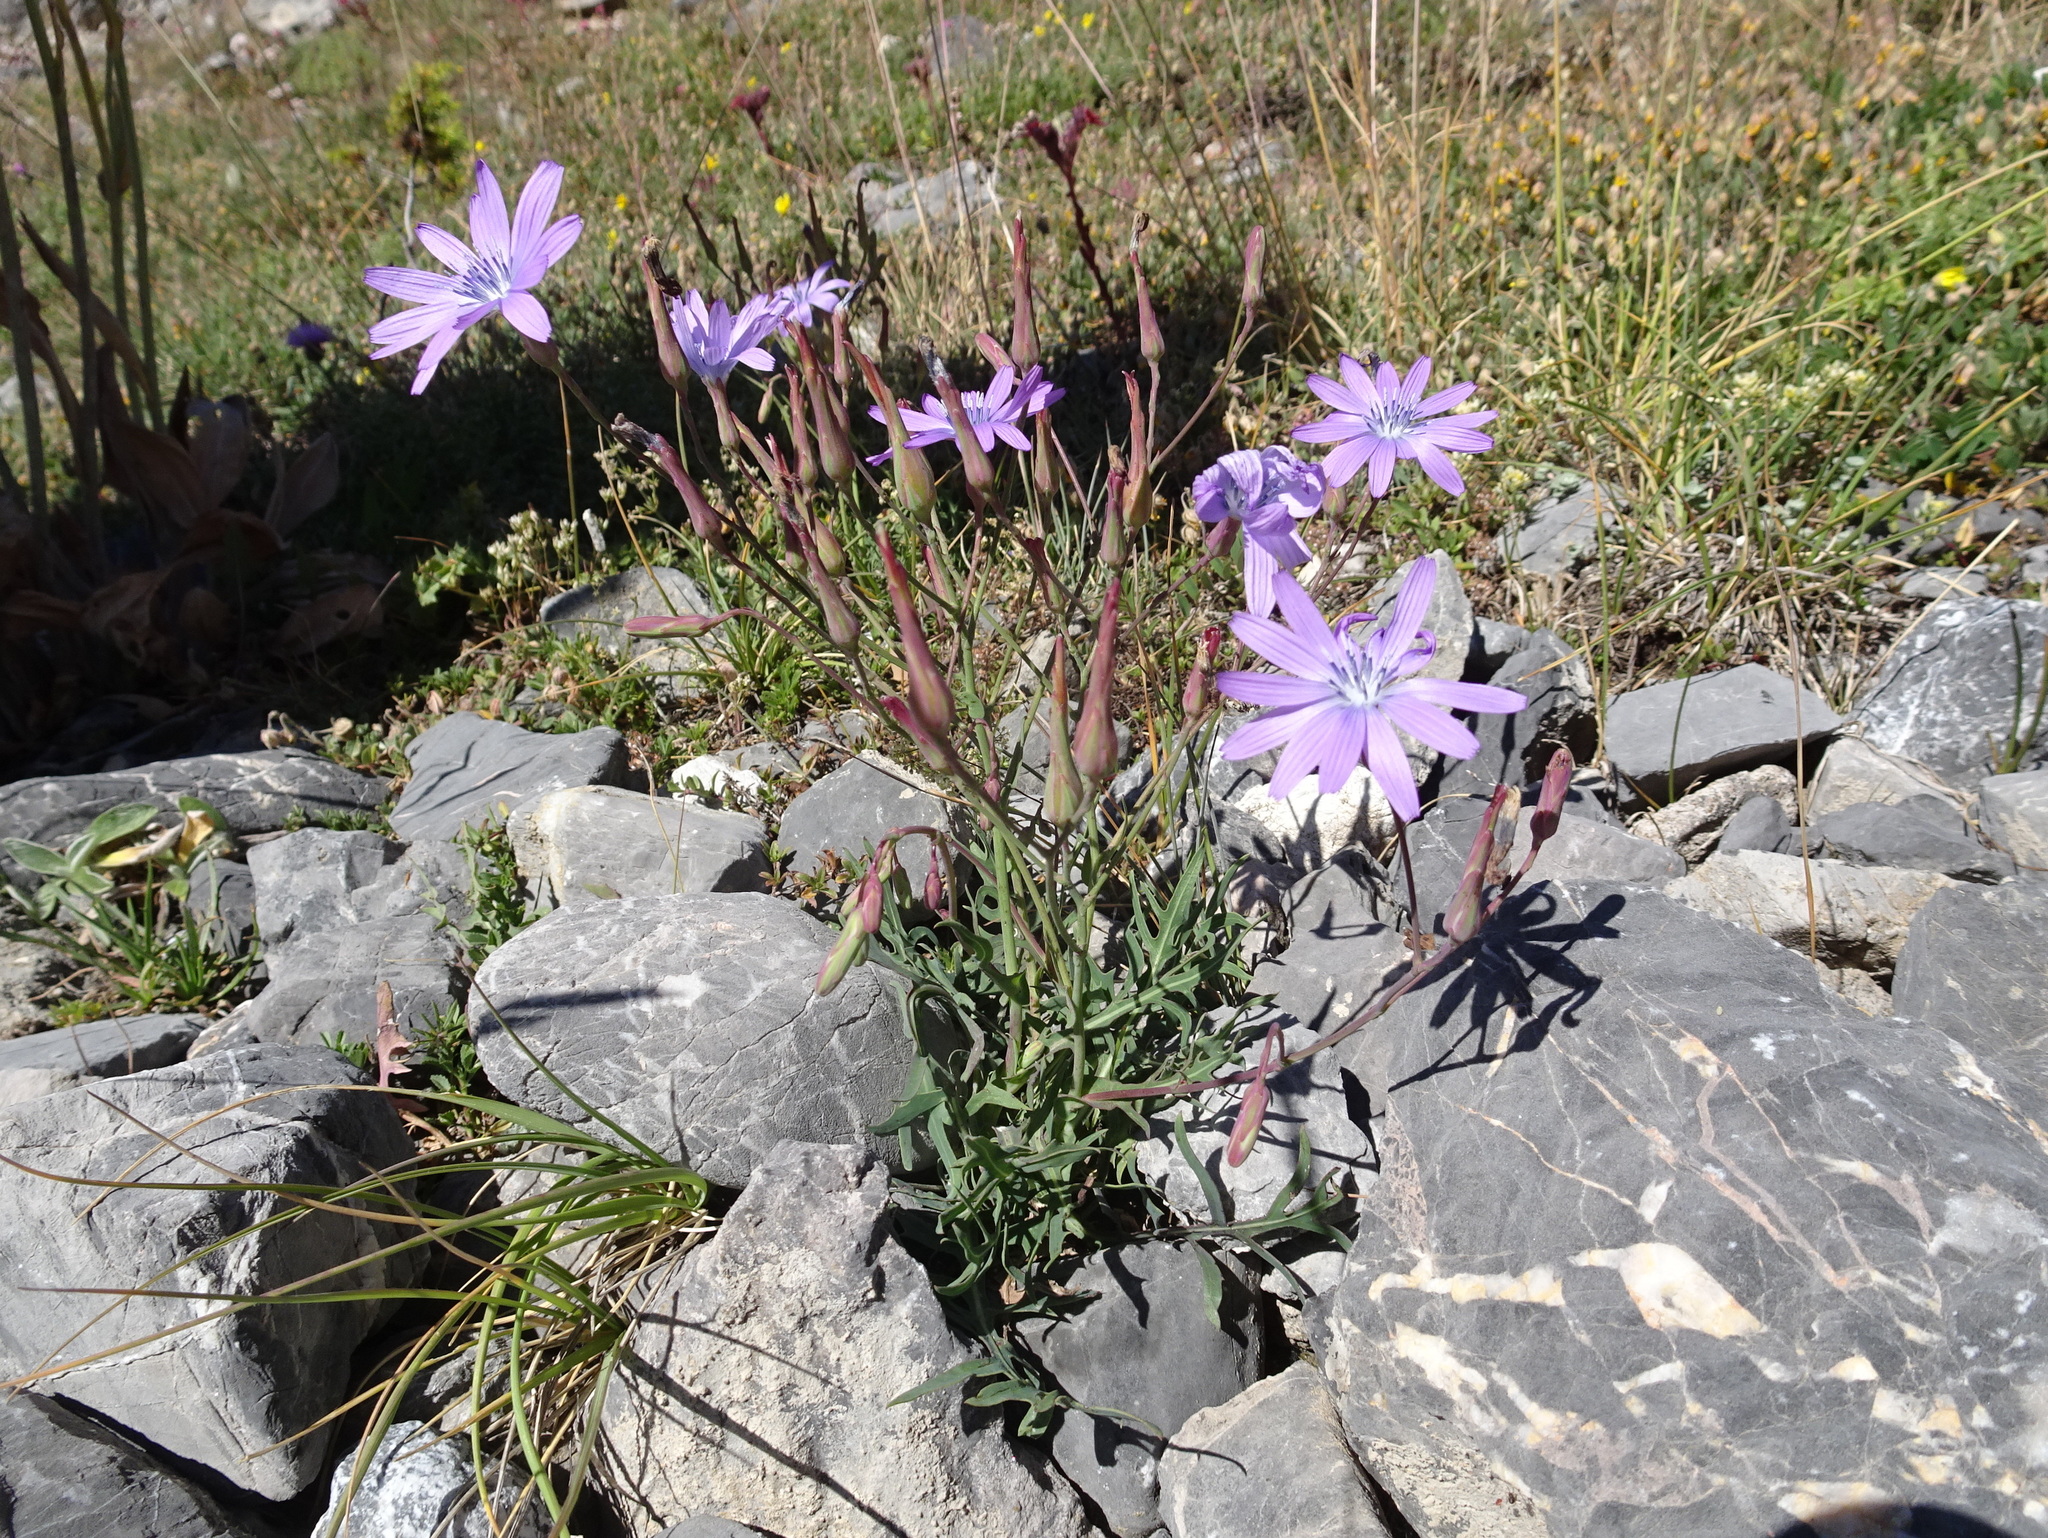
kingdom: Plantae
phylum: Tracheophyta
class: Magnoliopsida
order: Asterales
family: Asteraceae
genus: Lactuca
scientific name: Lactuca perennis
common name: Mountain lettuce
